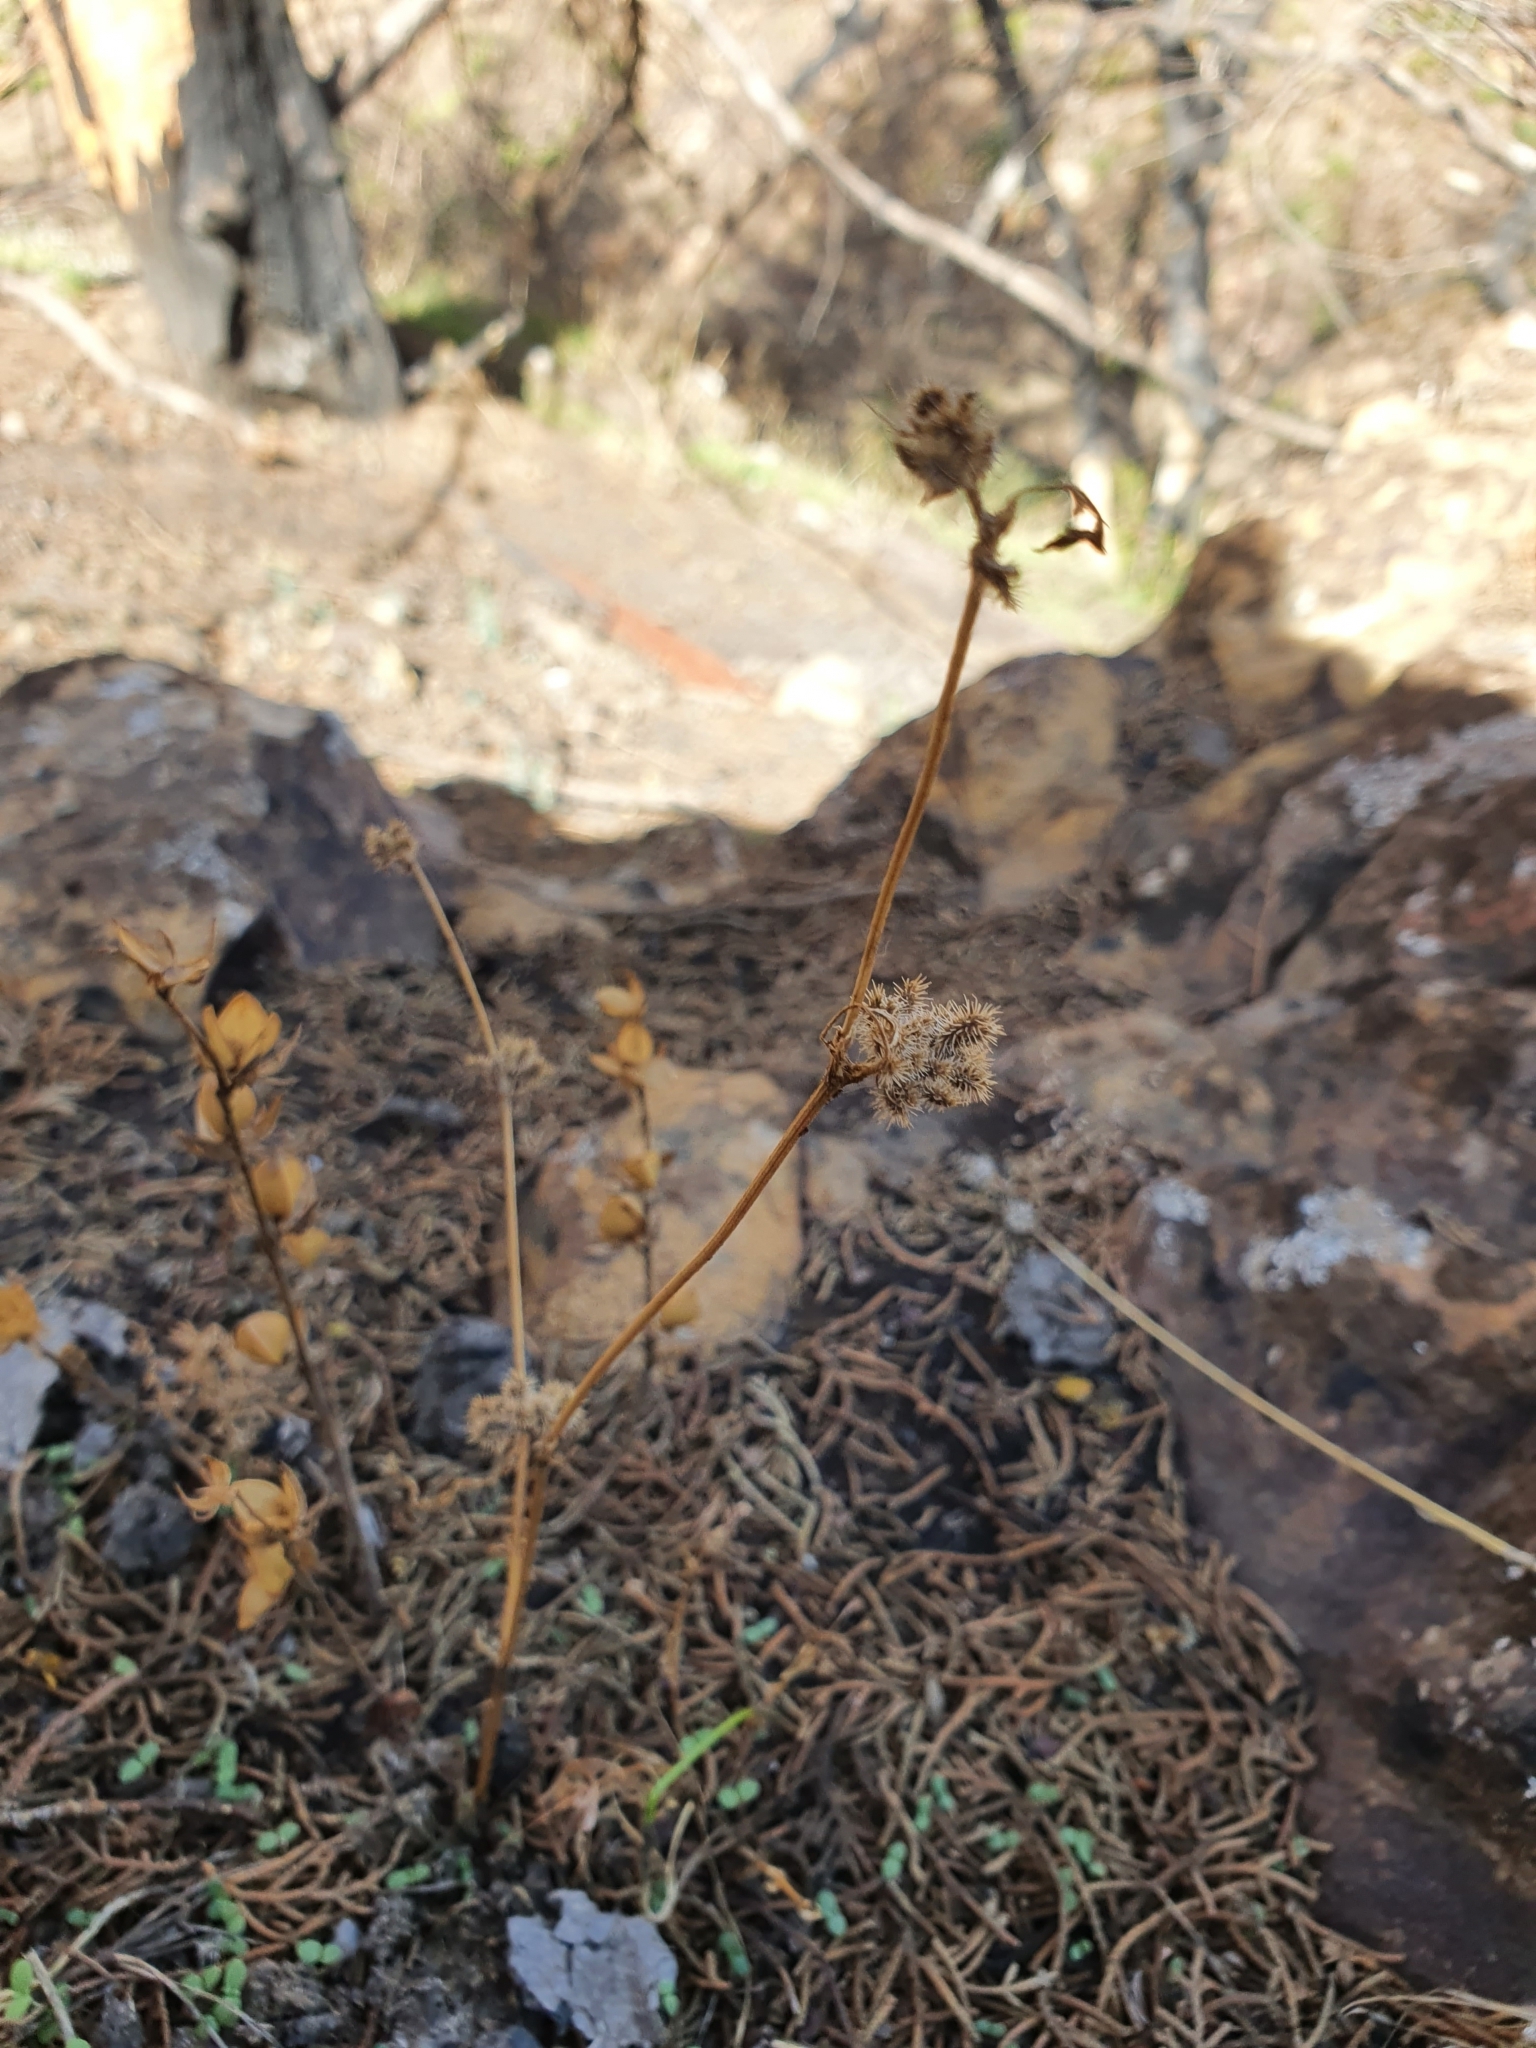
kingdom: Plantae
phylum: Tracheophyta
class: Magnoliopsida
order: Apiales
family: Apiaceae
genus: Torilis
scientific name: Torilis pseudonodosa
